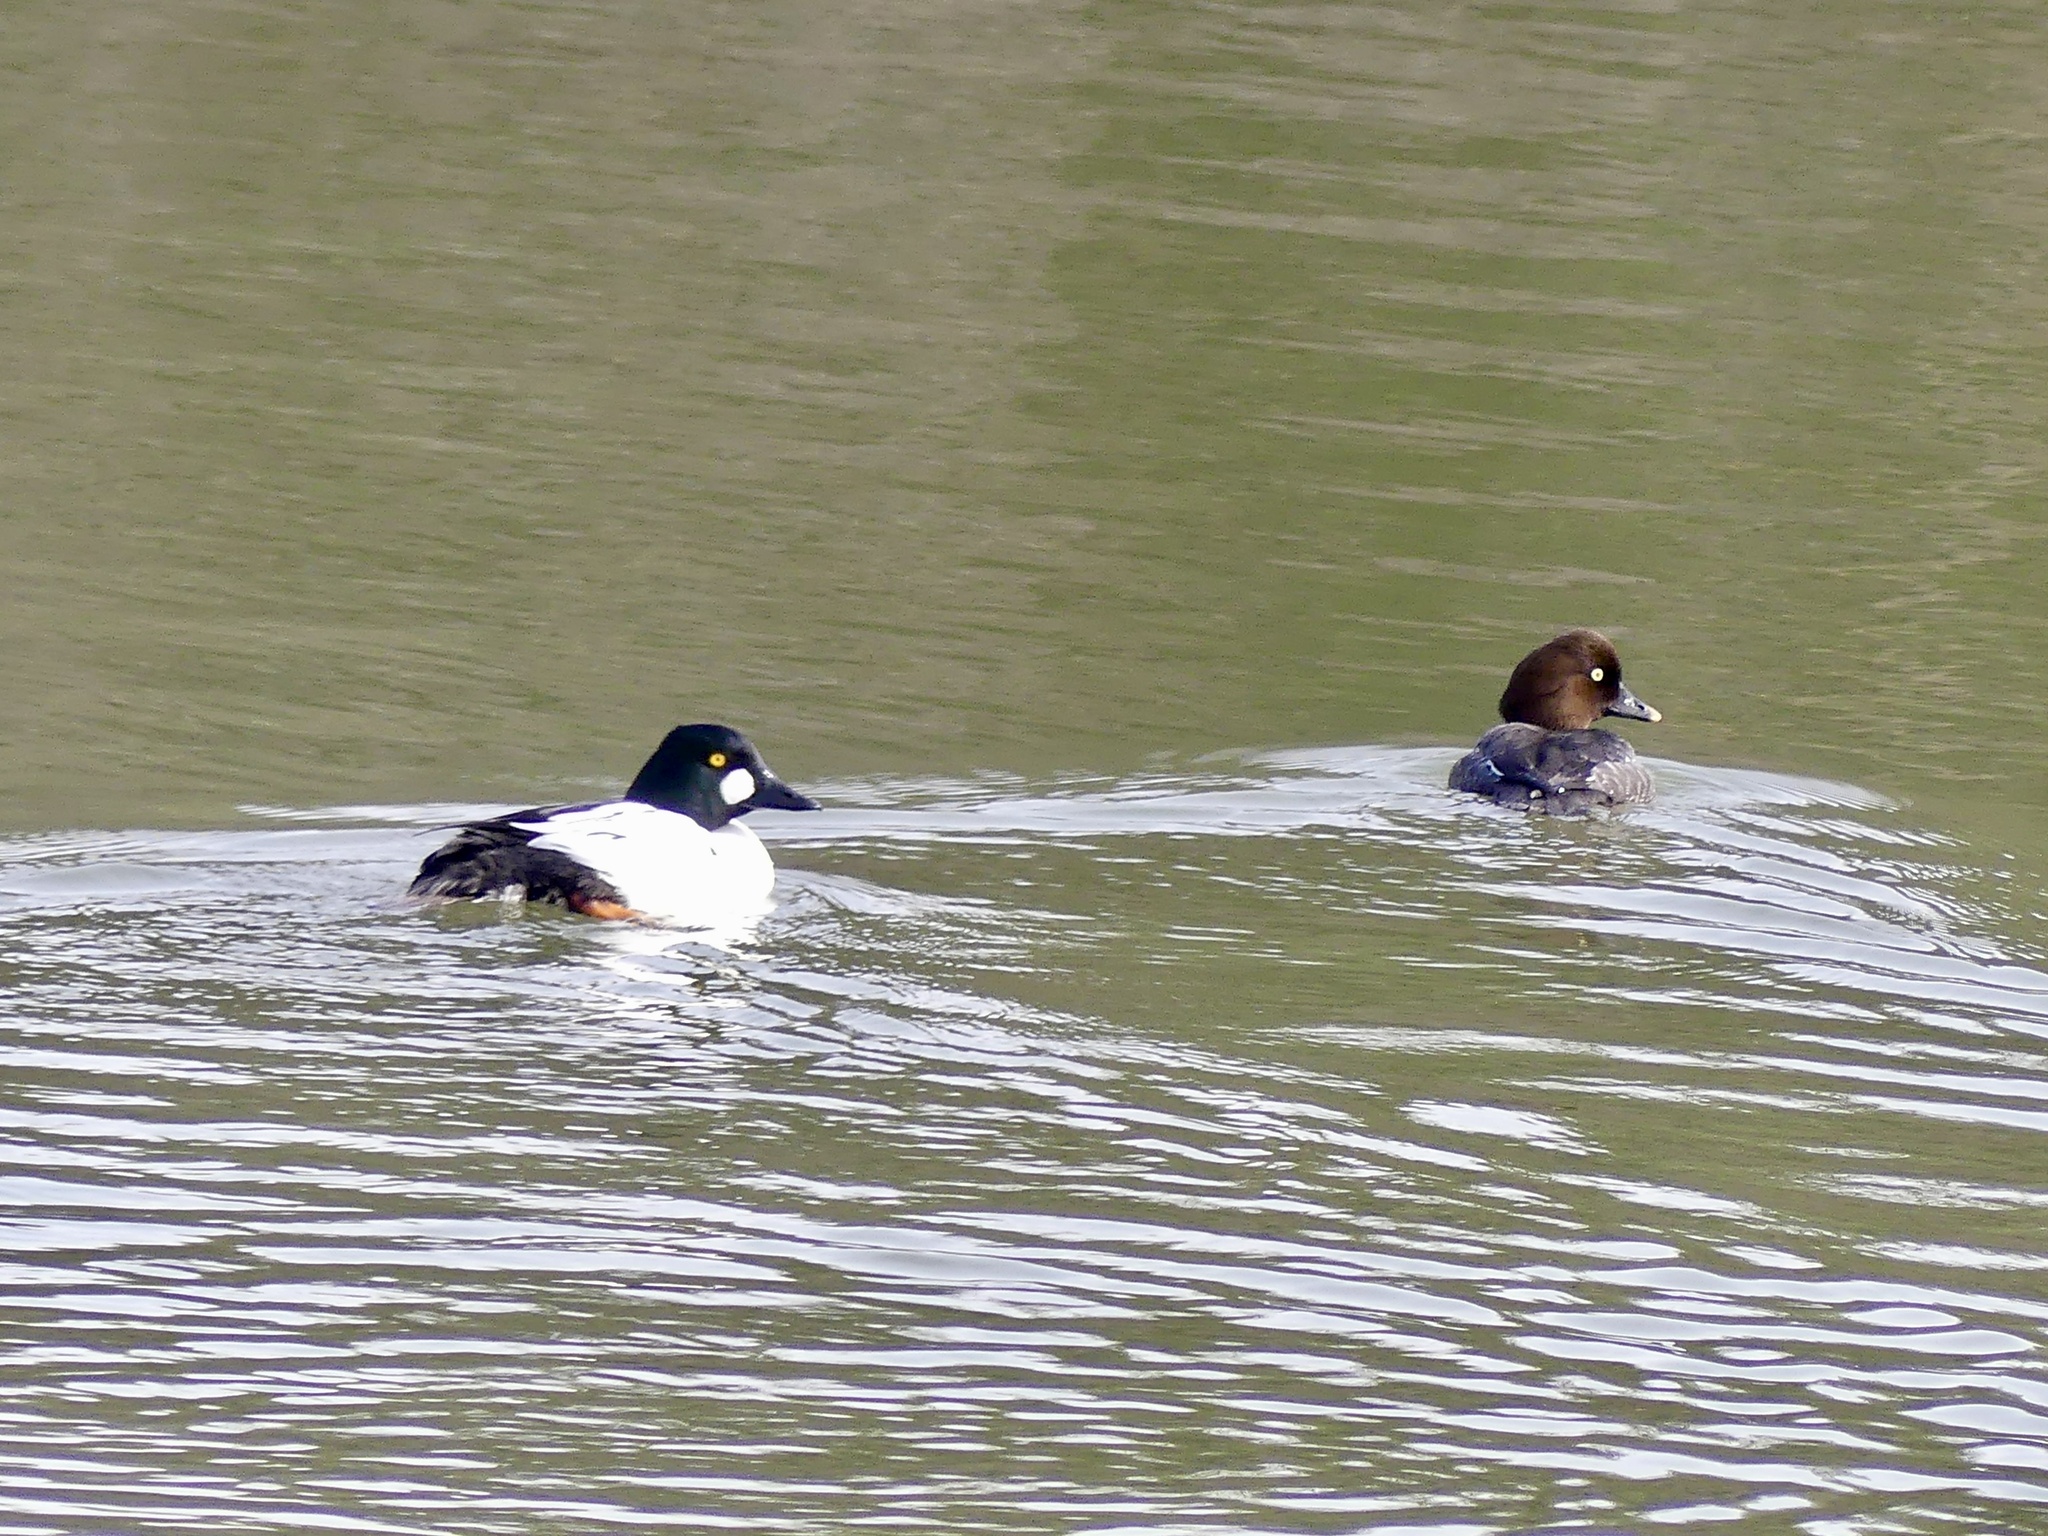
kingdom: Animalia
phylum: Chordata
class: Aves
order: Anseriformes
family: Anatidae
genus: Bucephala
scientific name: Bucephala clangula
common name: Common goldeneye
